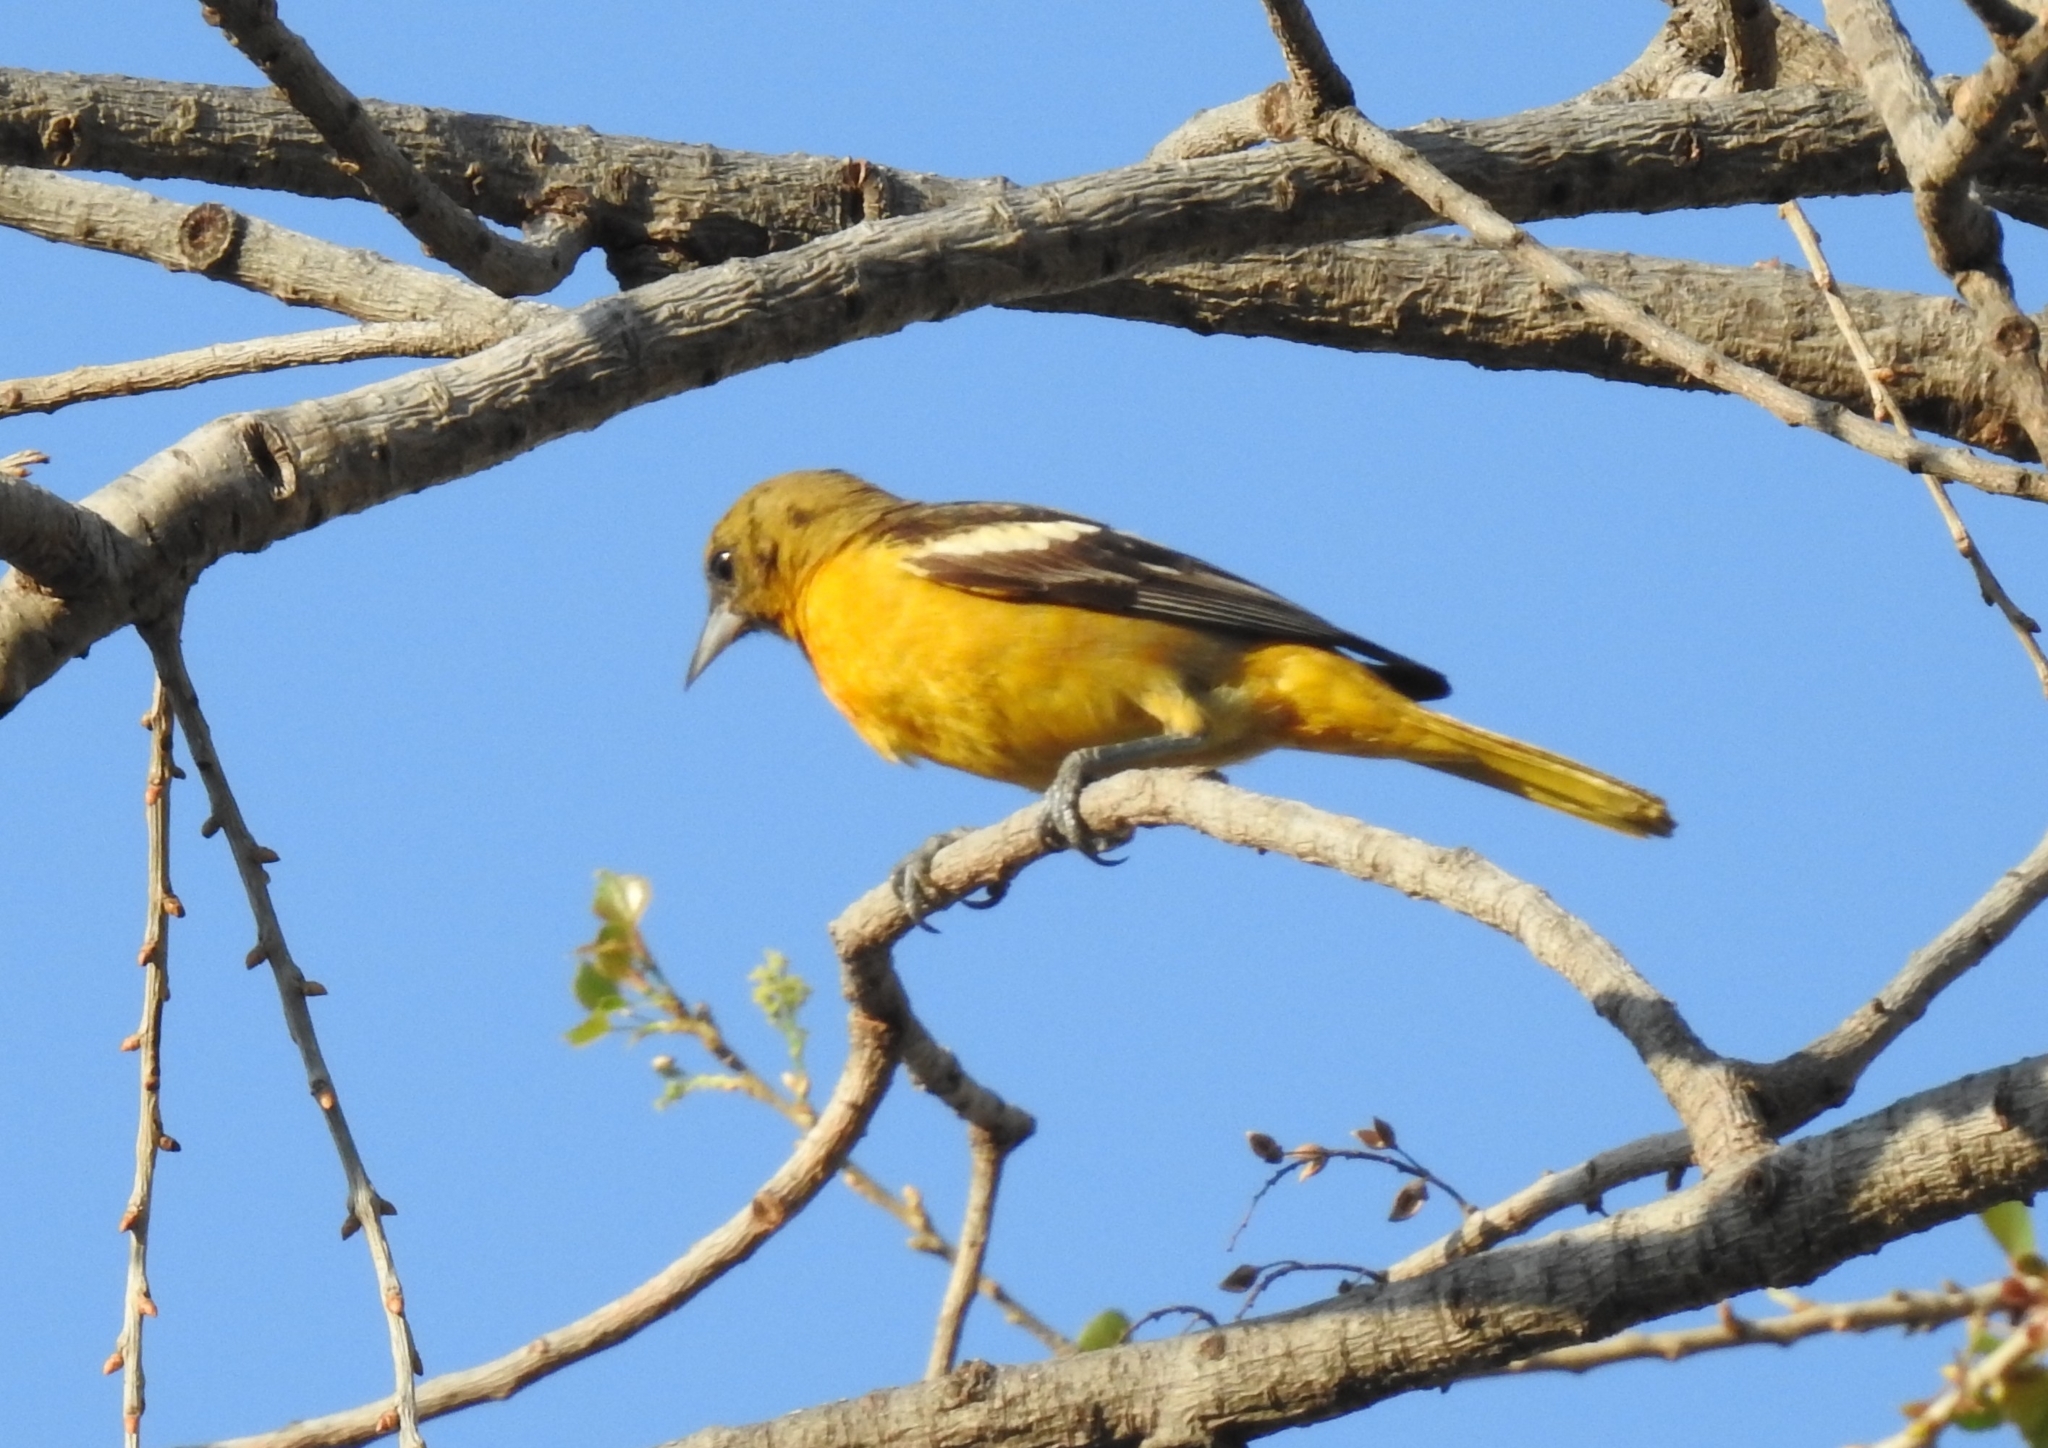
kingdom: Animalia
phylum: Chordata
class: Aves
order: Passeriformes
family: Icteridae
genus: Icterus
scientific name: Icterus galbula
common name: Baltimore oriole
